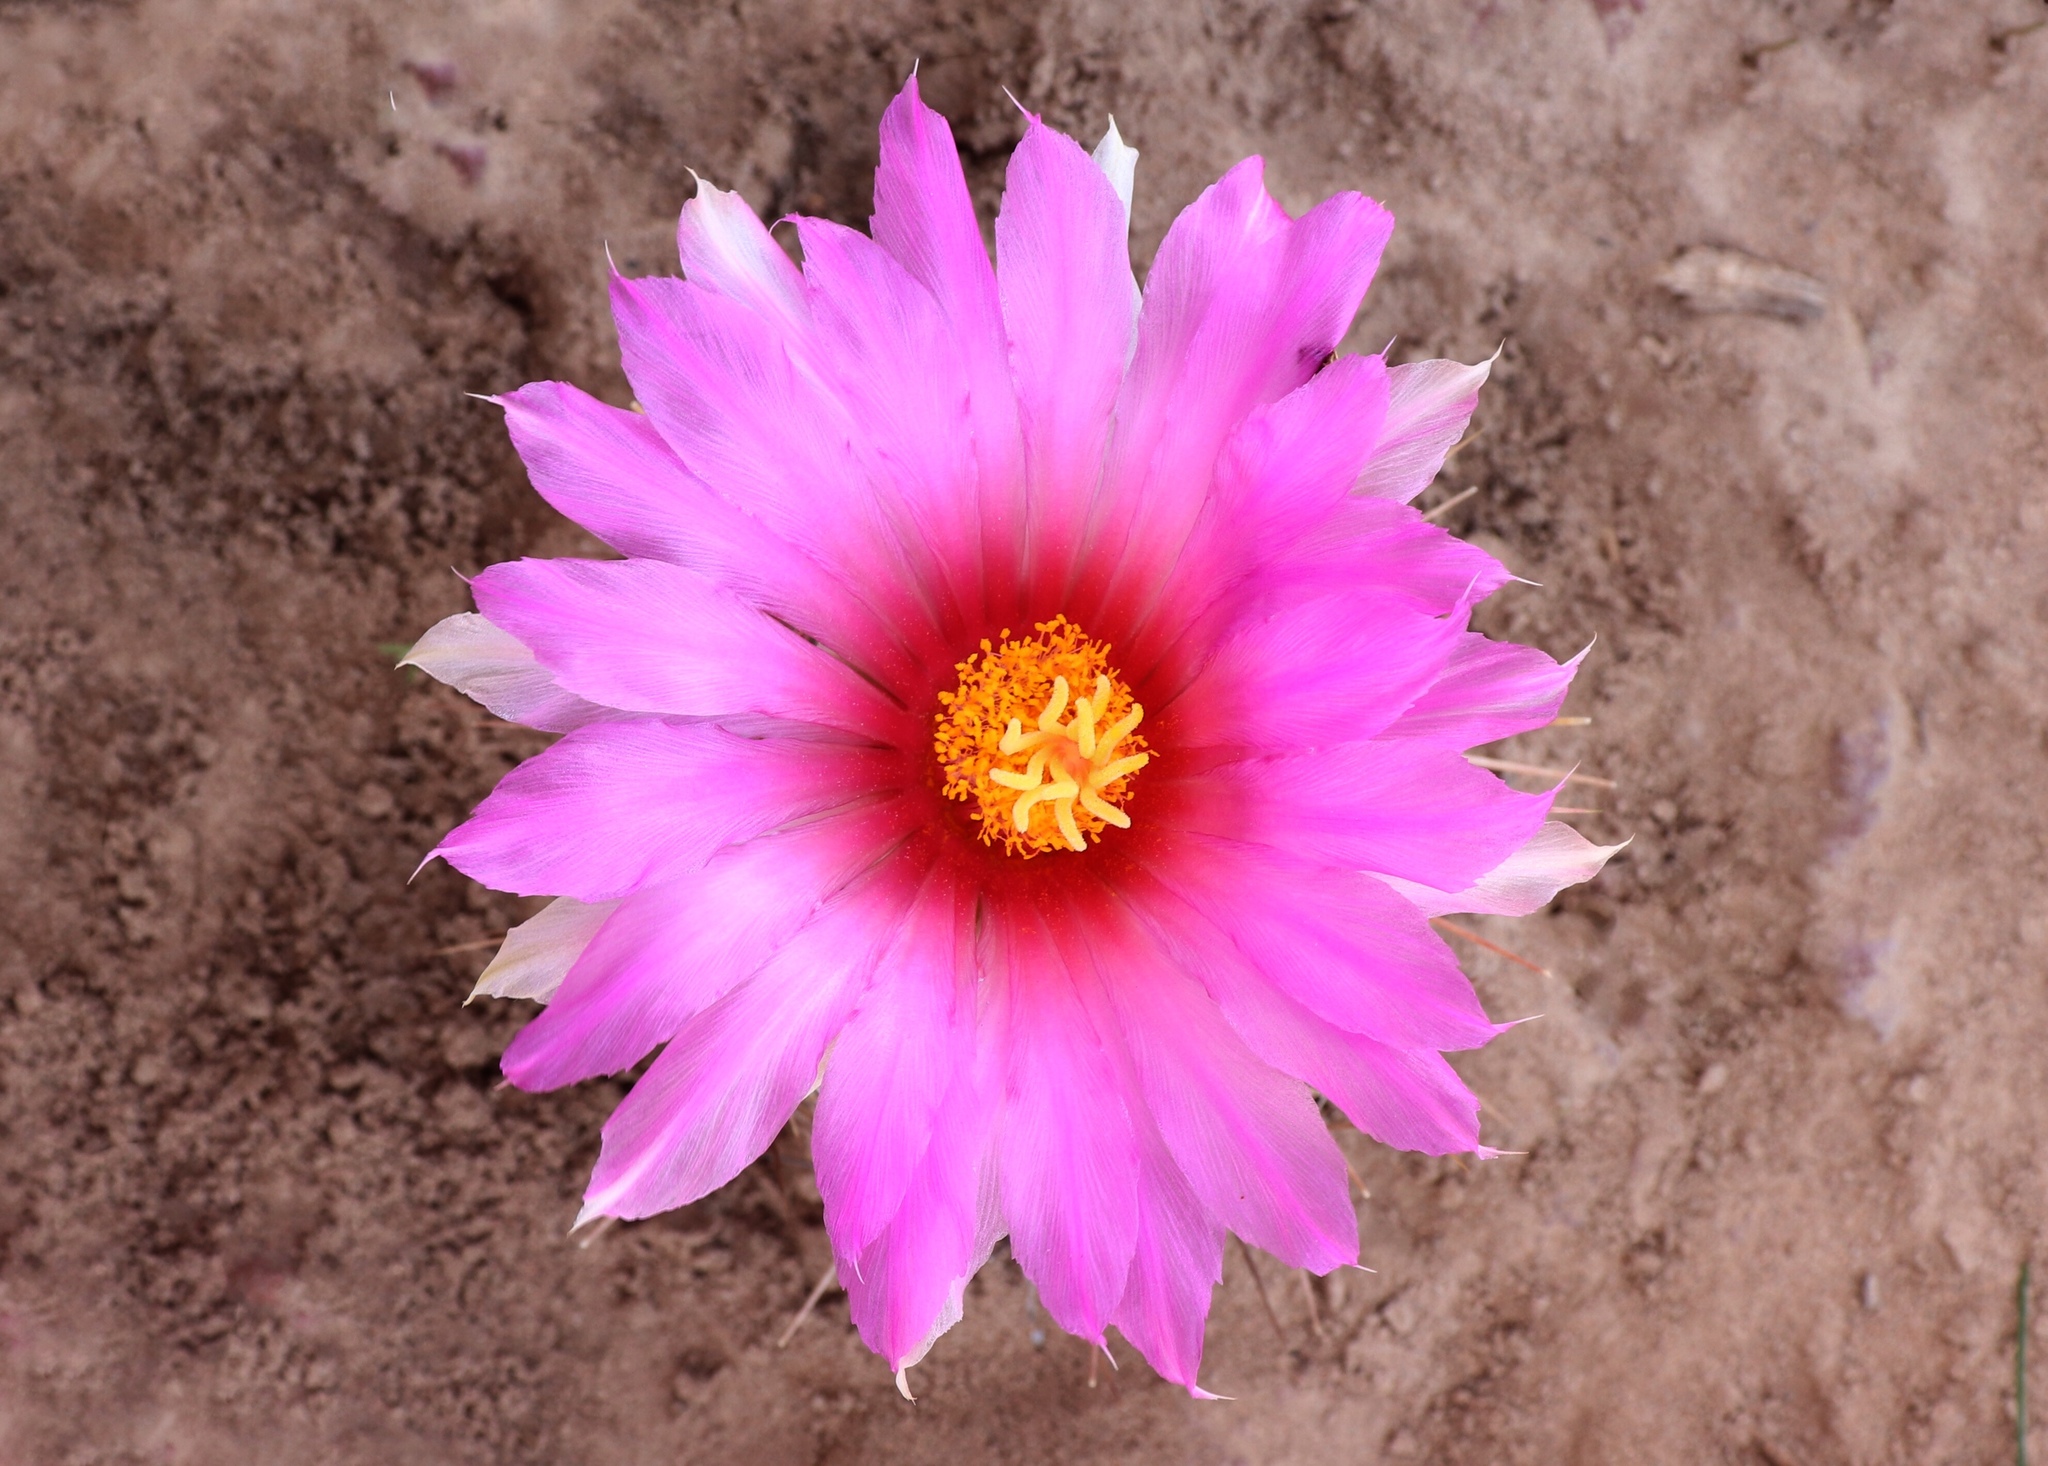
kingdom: Plantae
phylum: Tracheophyta
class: Magnoliopsida
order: Caryophyllales
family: Cactaceae
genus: Thelocactus
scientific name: Thelocactus bicolor
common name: Glory of texas
